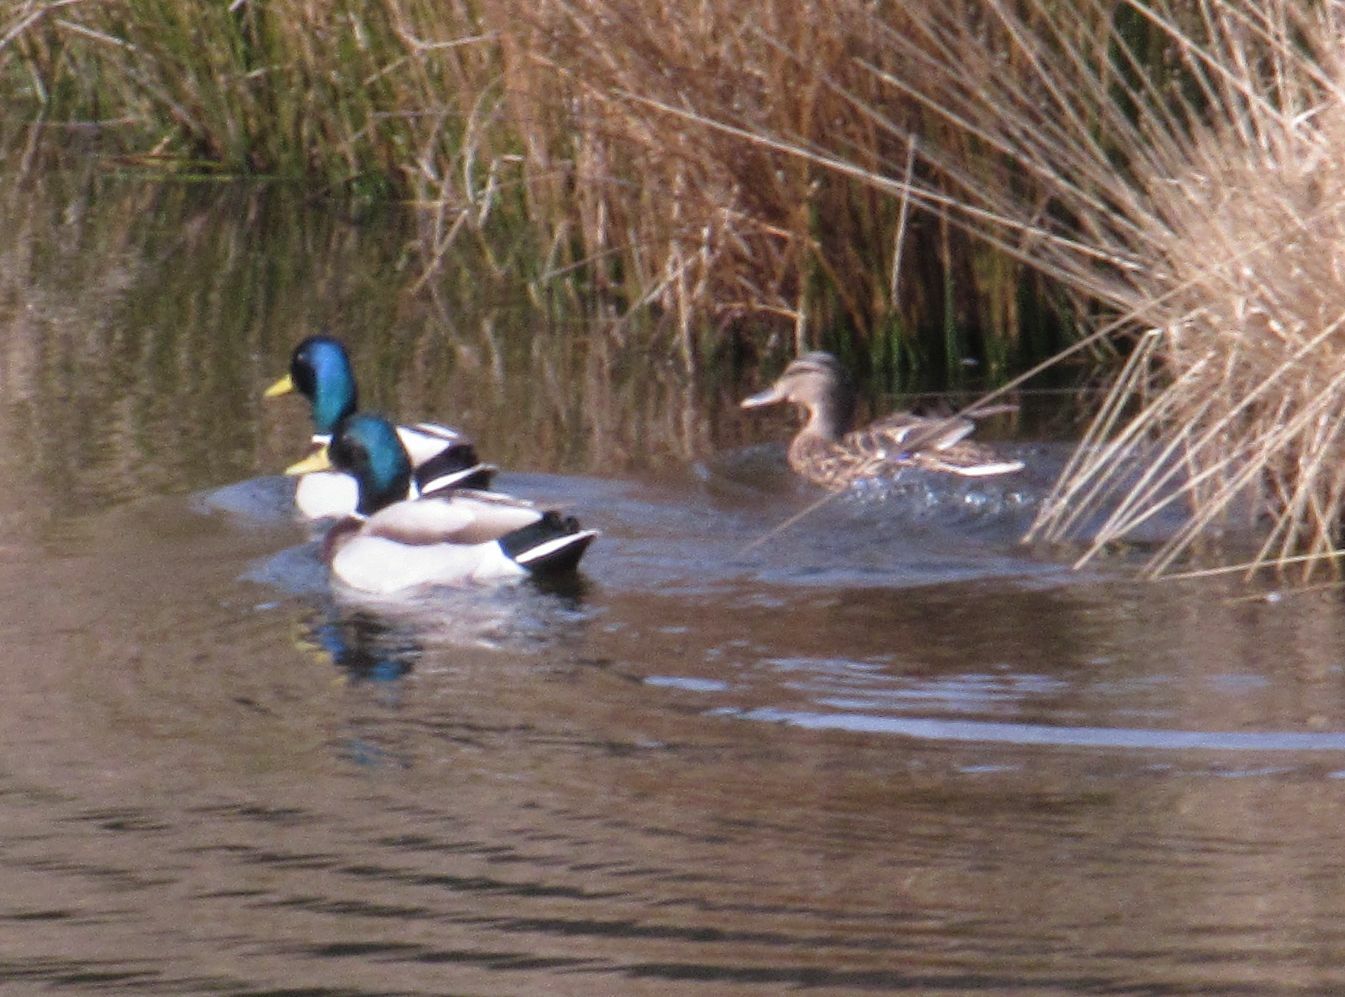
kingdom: Animalia
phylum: Chordata
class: Aves
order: Anseriformes
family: Anatidae
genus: Anas
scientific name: Anas platyrhynchos
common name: Mallard
